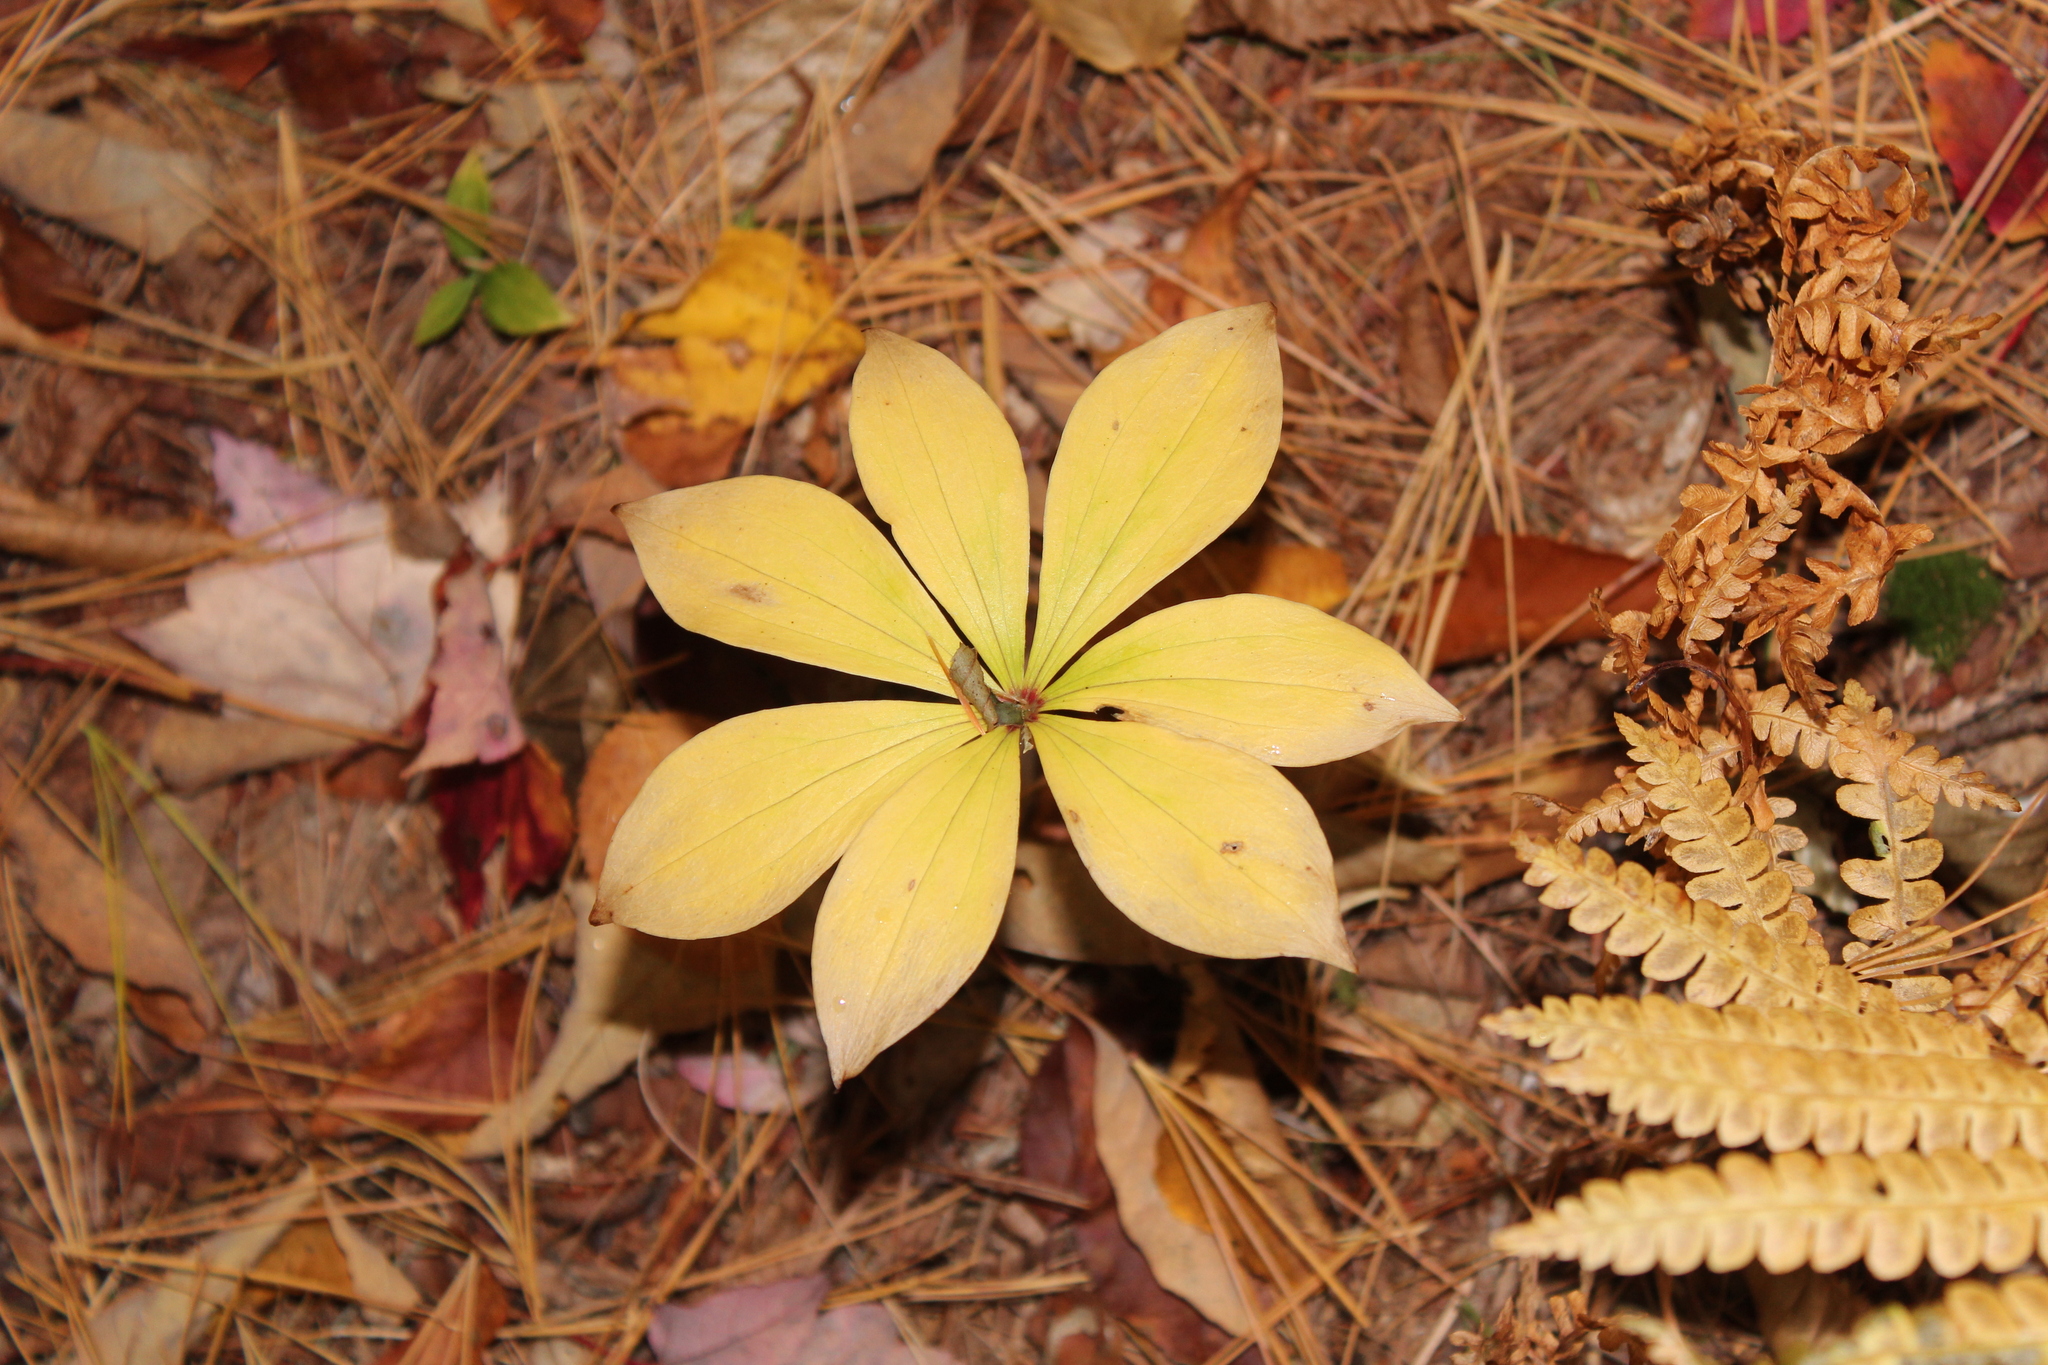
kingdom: Plantae
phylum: Tracheophyta
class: Liliopsida
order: Liliales
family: Liliaceae
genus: Medeola
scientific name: Medeola virginiana
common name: Indian cucumber-root
